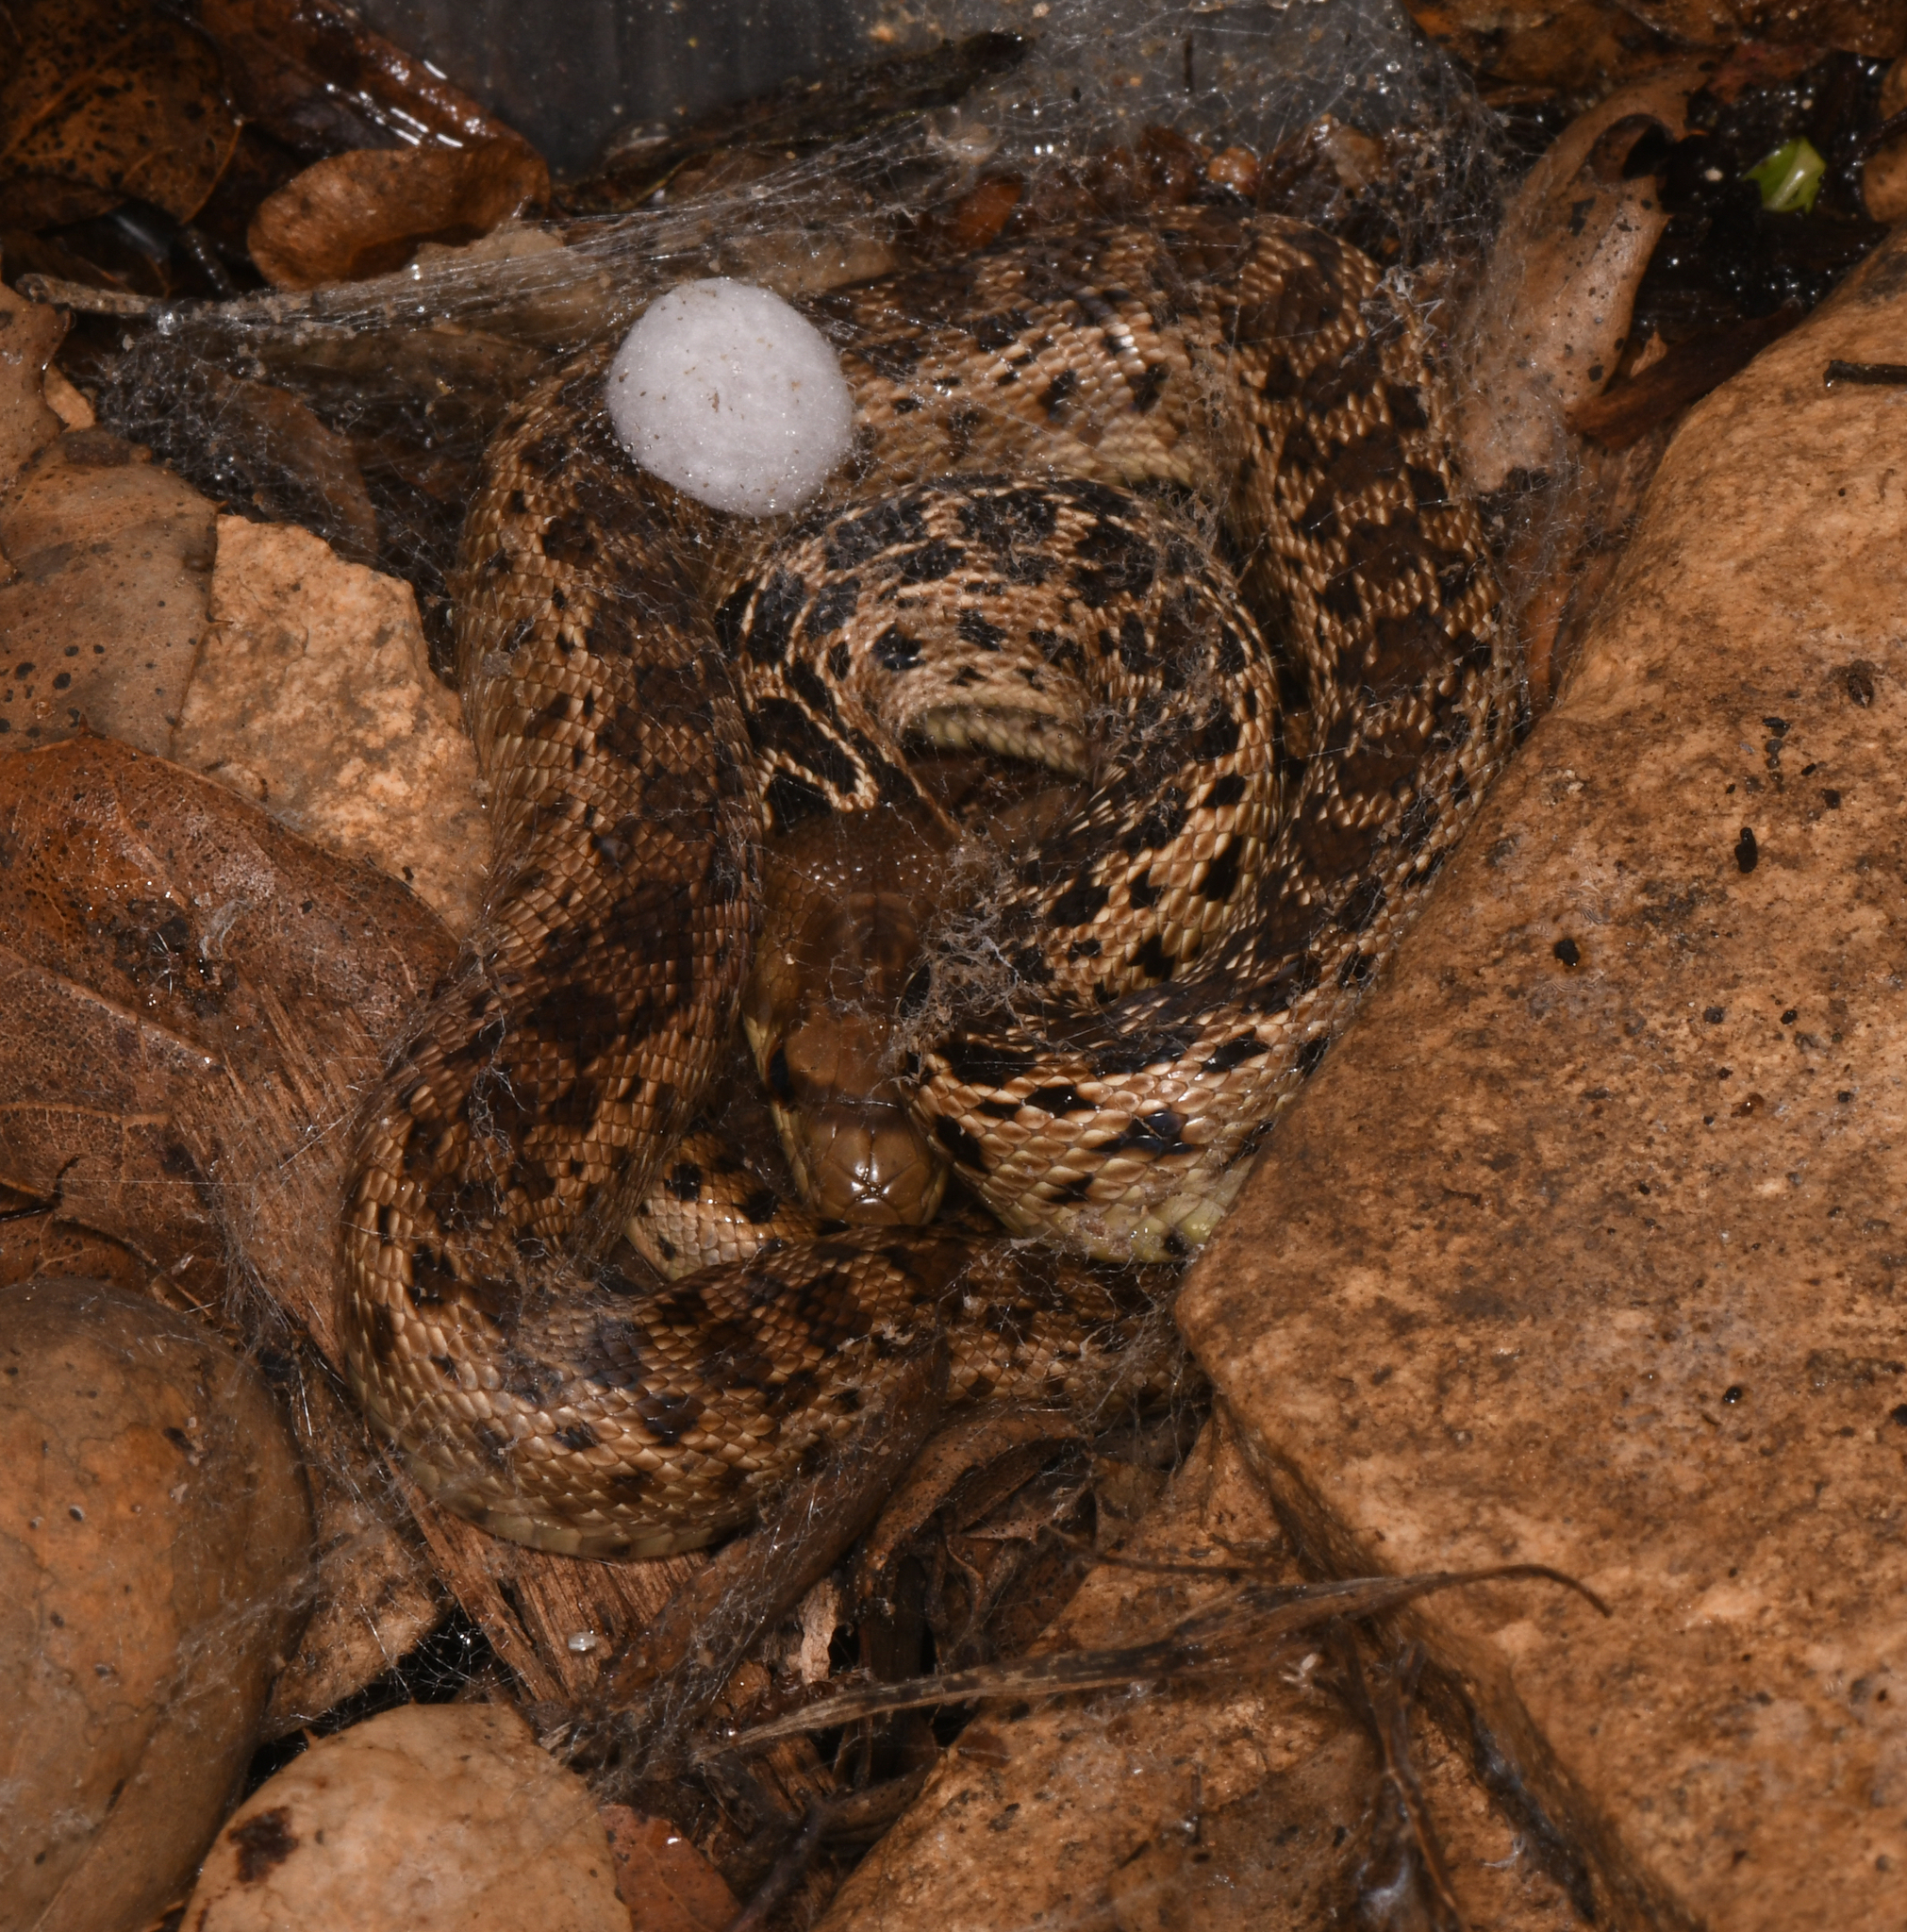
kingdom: Animalia
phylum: Chordata
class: Squamata
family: Colubridae
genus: Pituophis
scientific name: Pituophis catenifer
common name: Gopher snake
